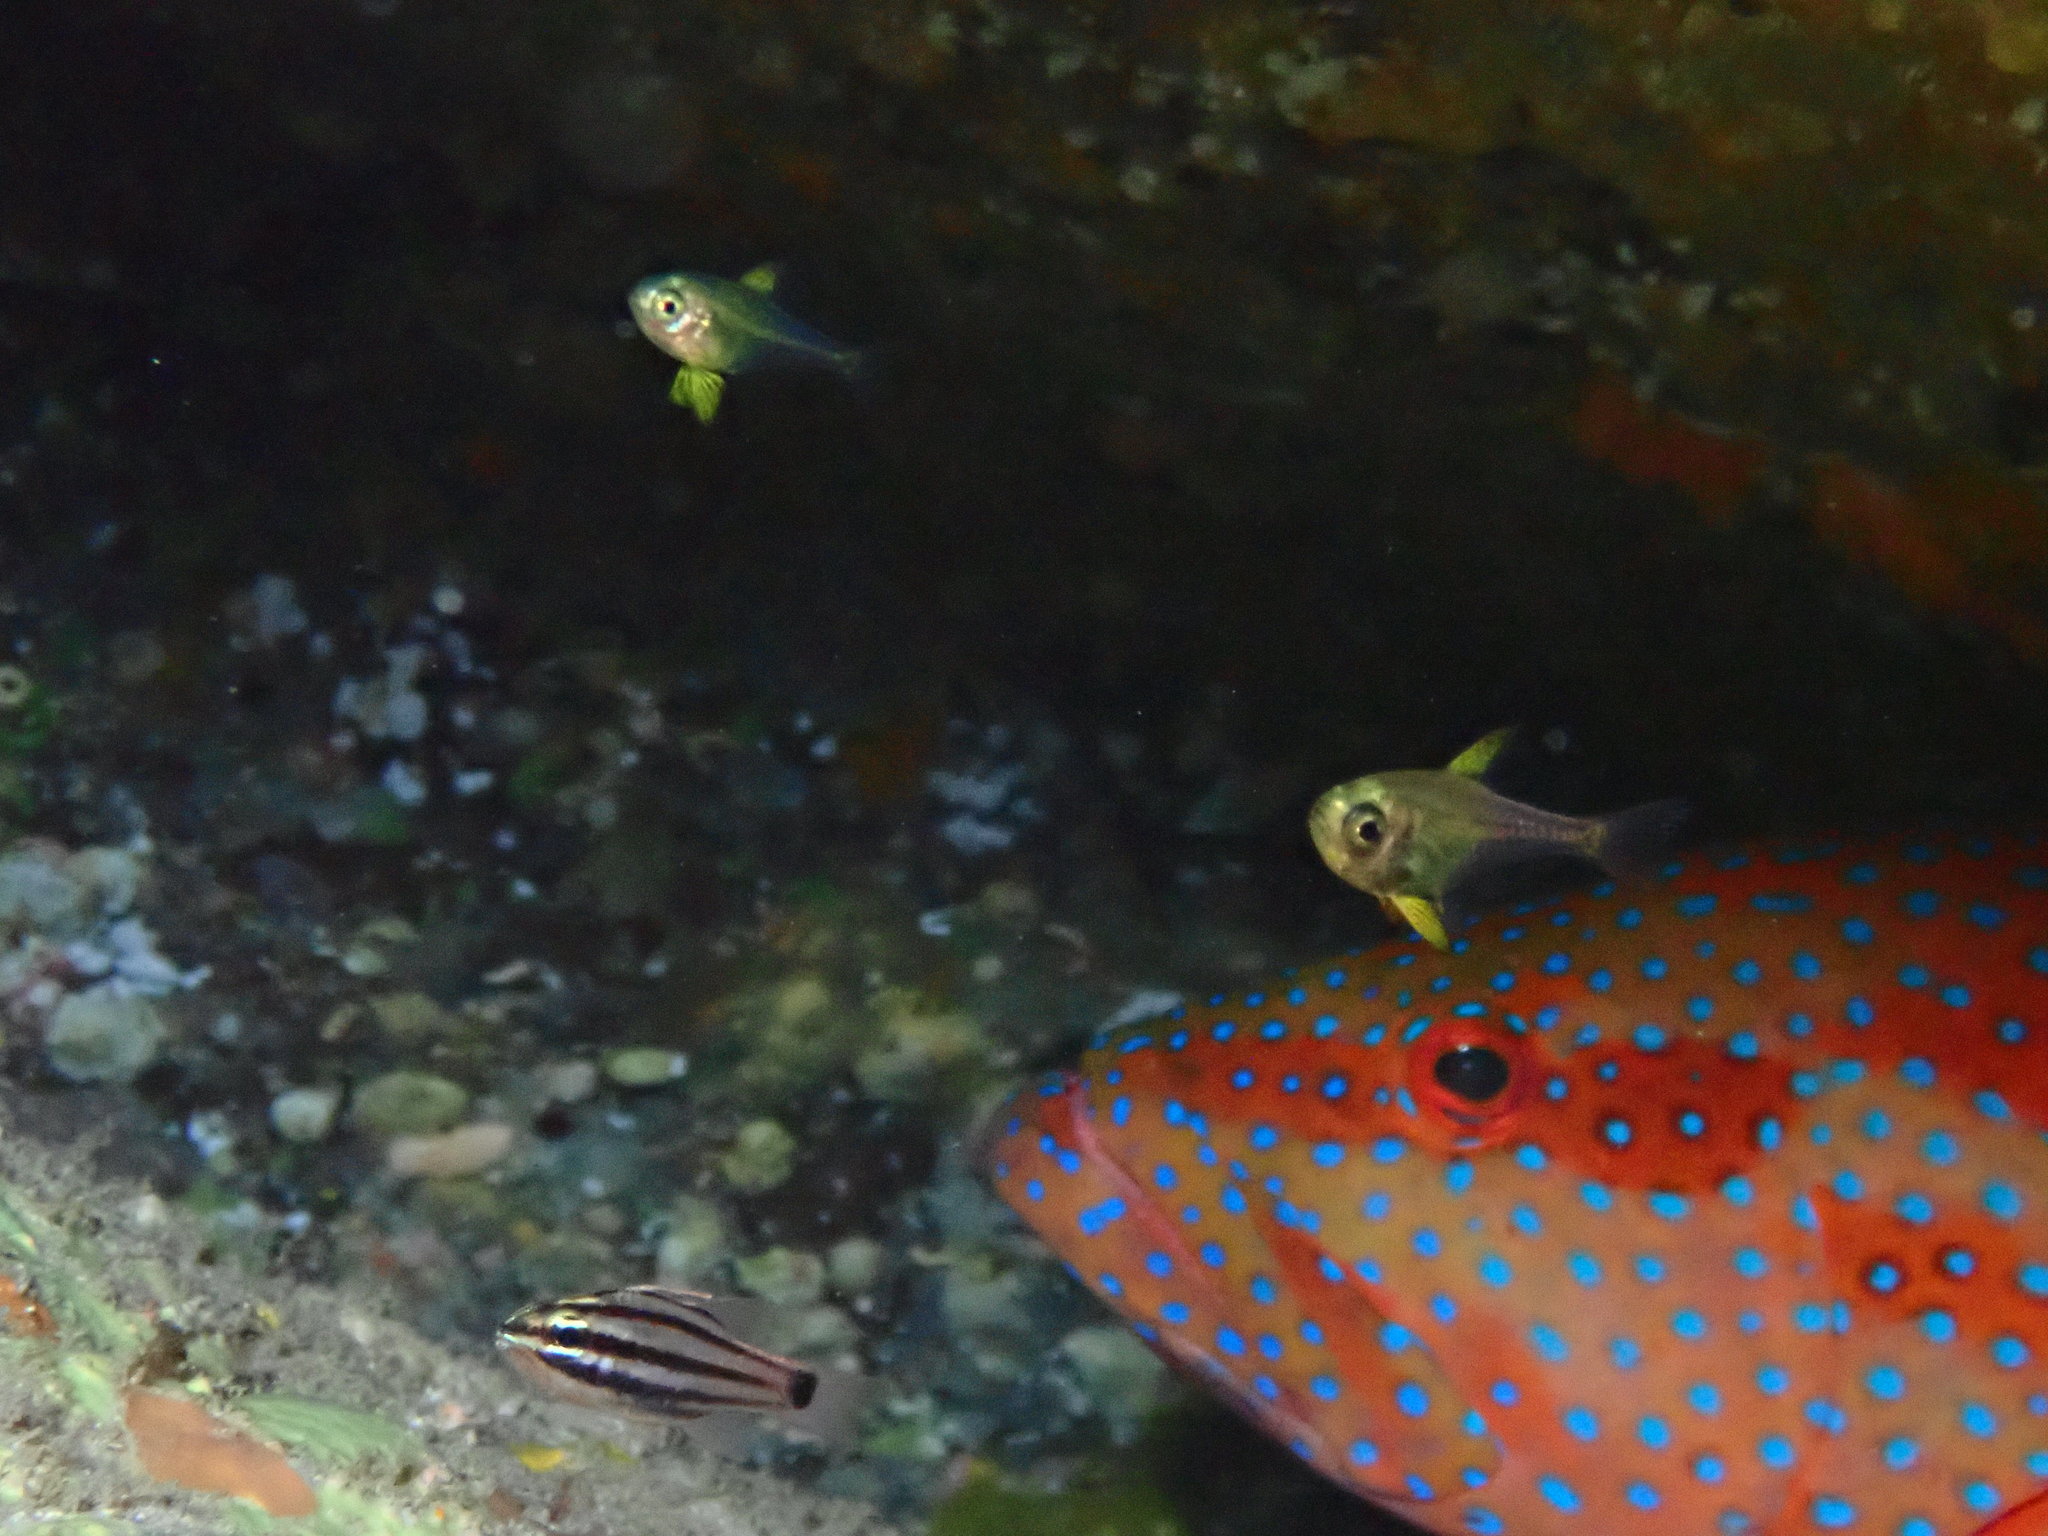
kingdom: Animalia
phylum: Chordata
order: Perciformes
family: Pempheridae
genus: Pempheris
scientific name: Pempheris analis
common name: Big eye
